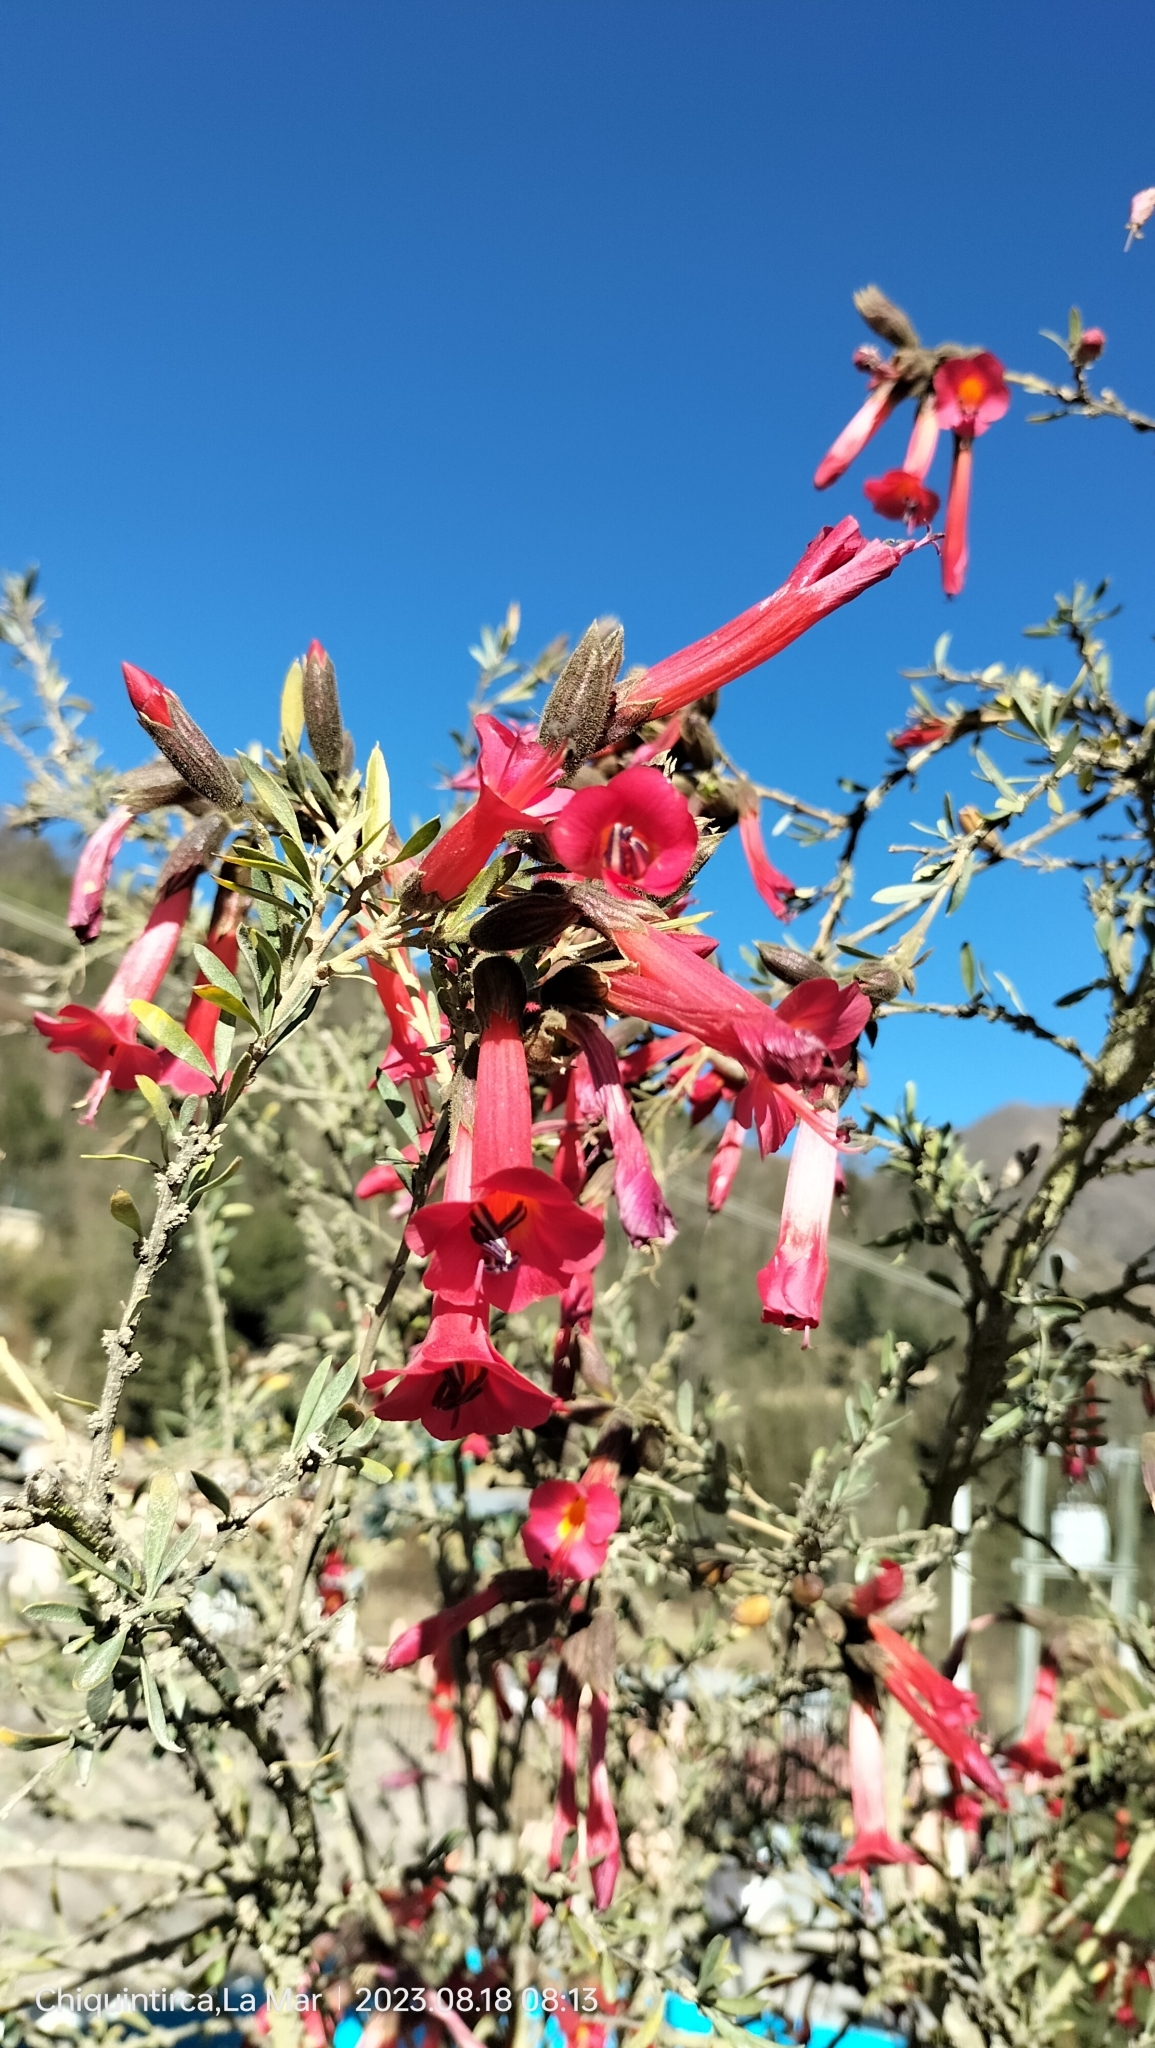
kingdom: Plantae
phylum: Tracheophyta
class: Magnoliopsida
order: Ericales
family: Polemoniaceae
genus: Cantua
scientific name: Cantua buxifolia
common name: Sacred-flower-of-the-incas
